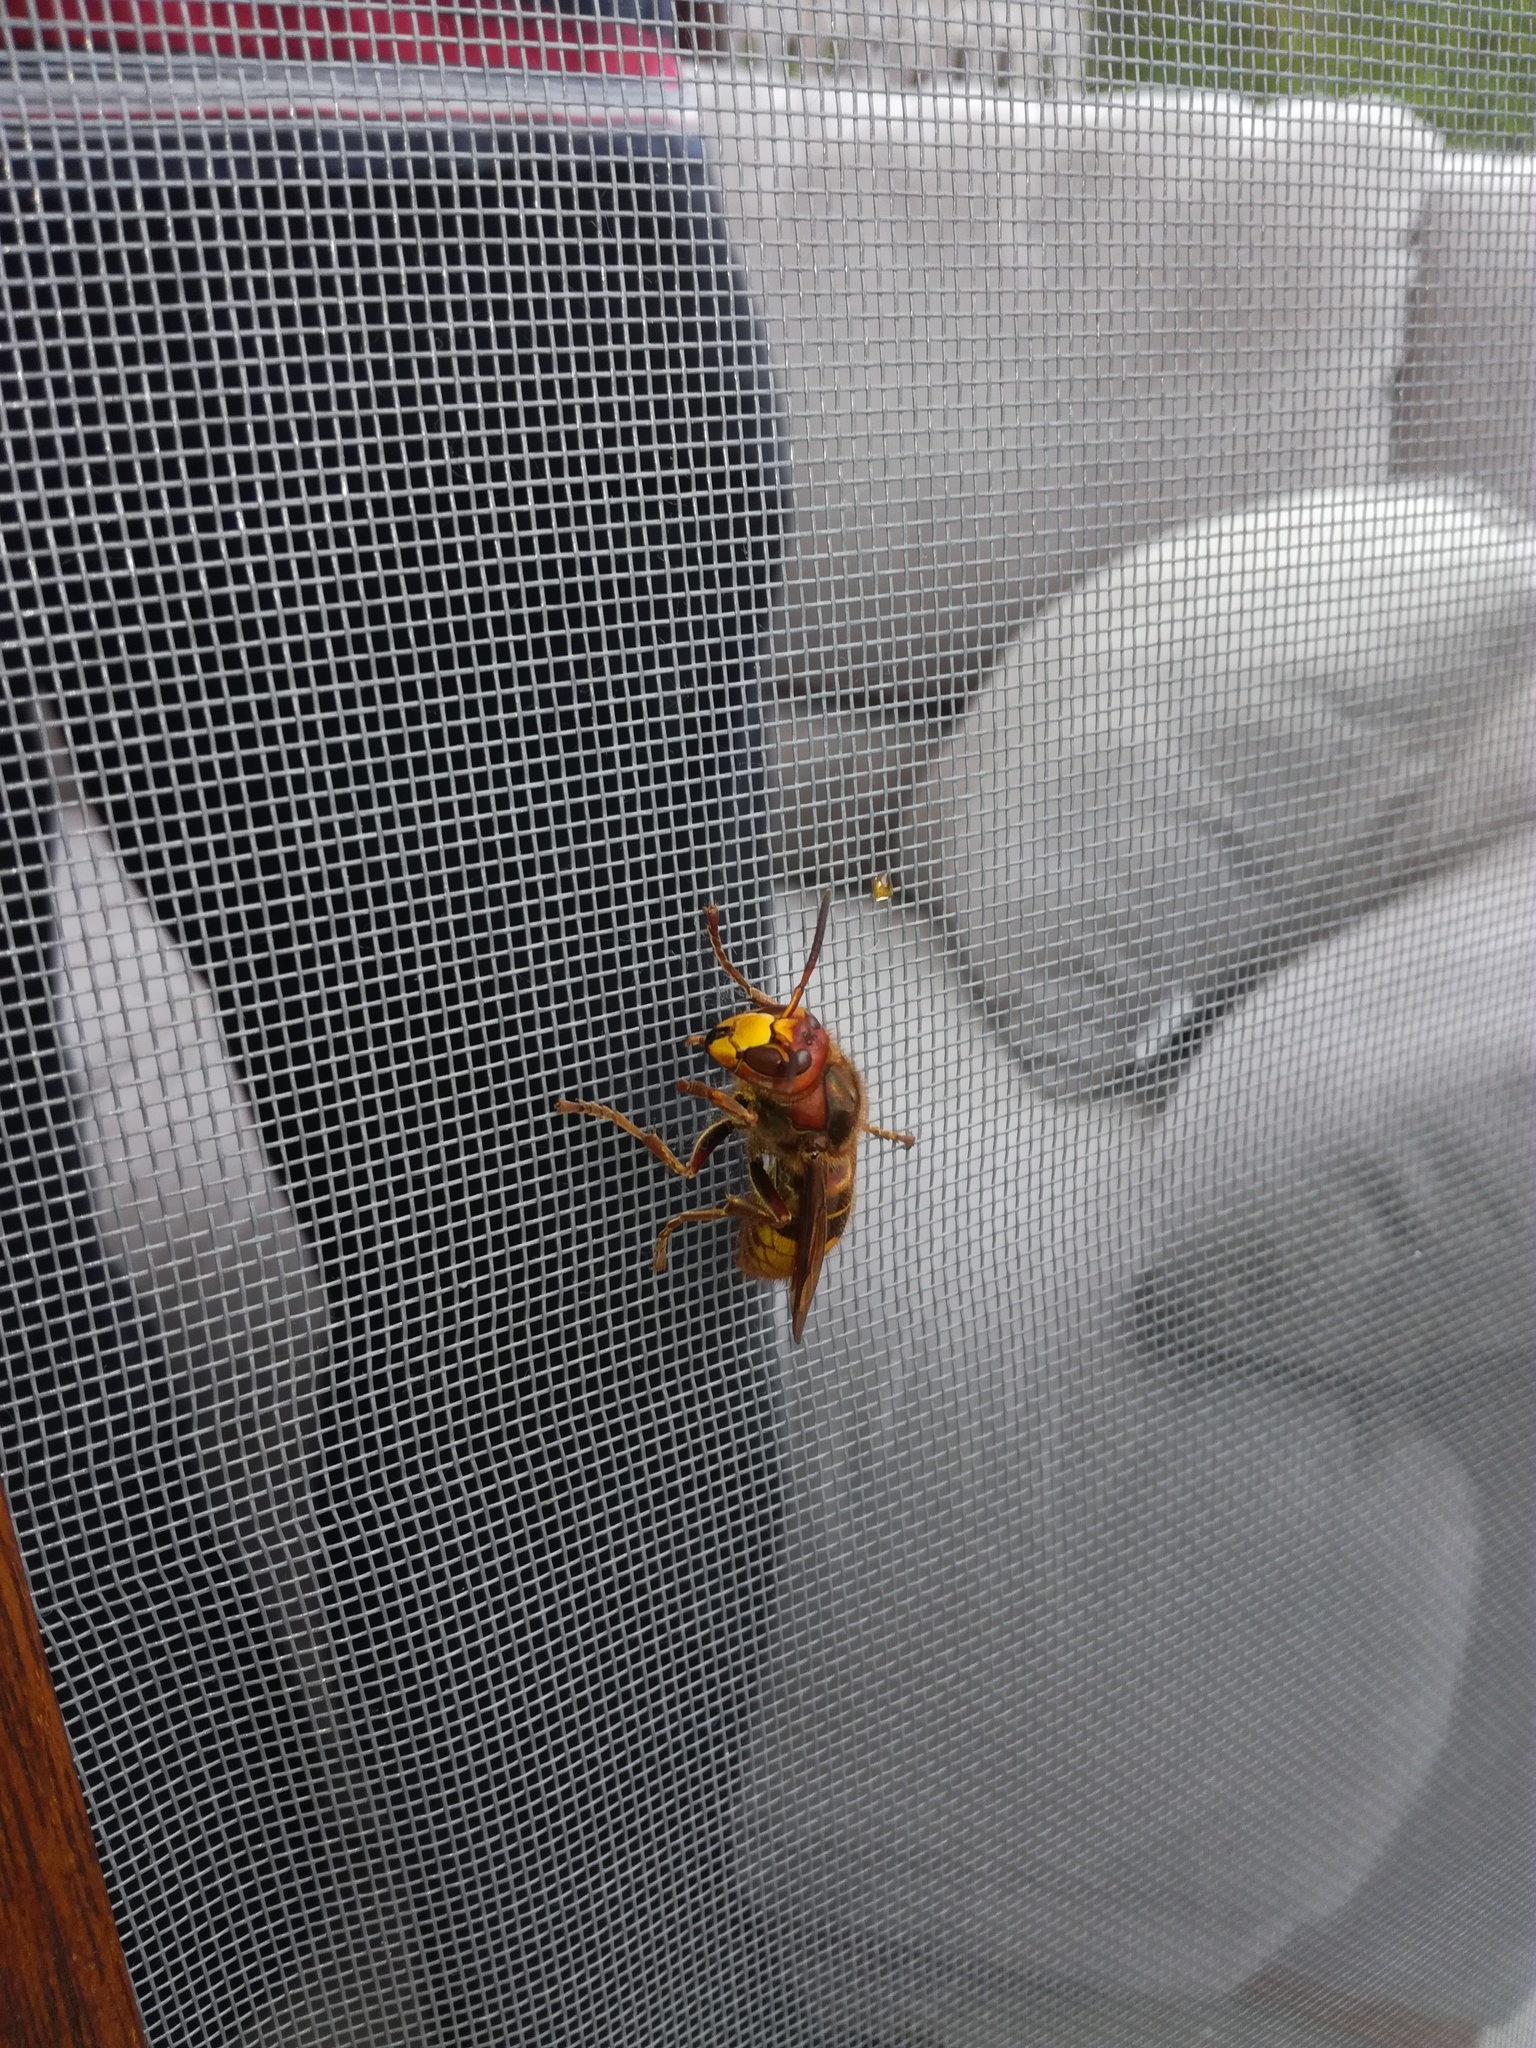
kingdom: Animalia
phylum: Arthropoda
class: Insecta
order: Hymenoptera
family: Vespidae
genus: Vespa
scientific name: Vespa crabro
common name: Hornet
